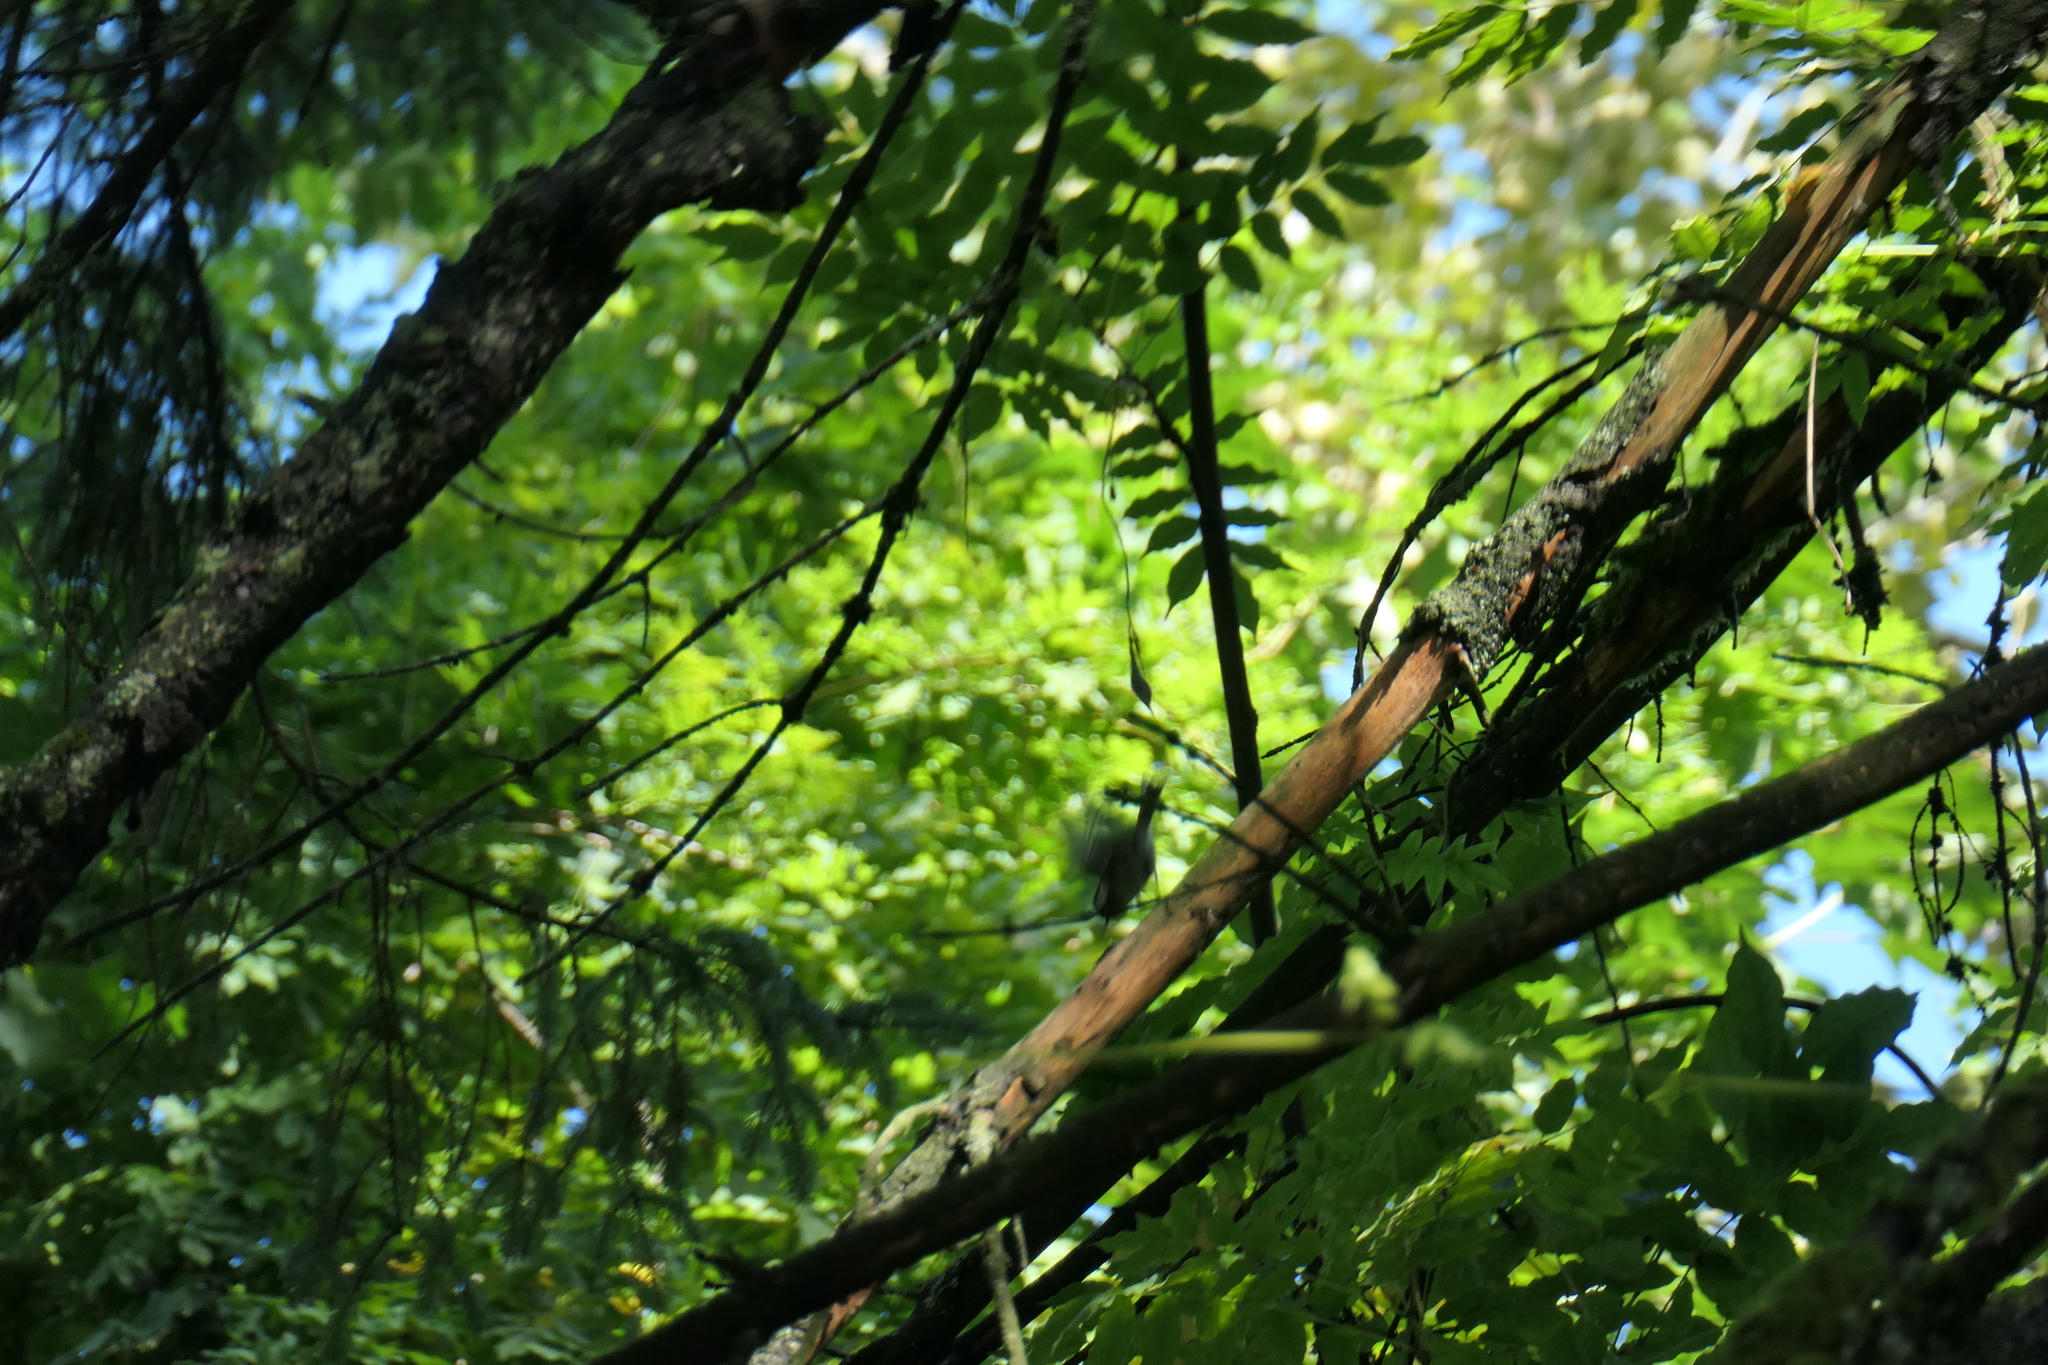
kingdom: Animalia
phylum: Chordata
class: Aves
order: Passeriformes
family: Paridae
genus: Poecile
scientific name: Poecile atricapillus
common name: Black-capped chickadee
